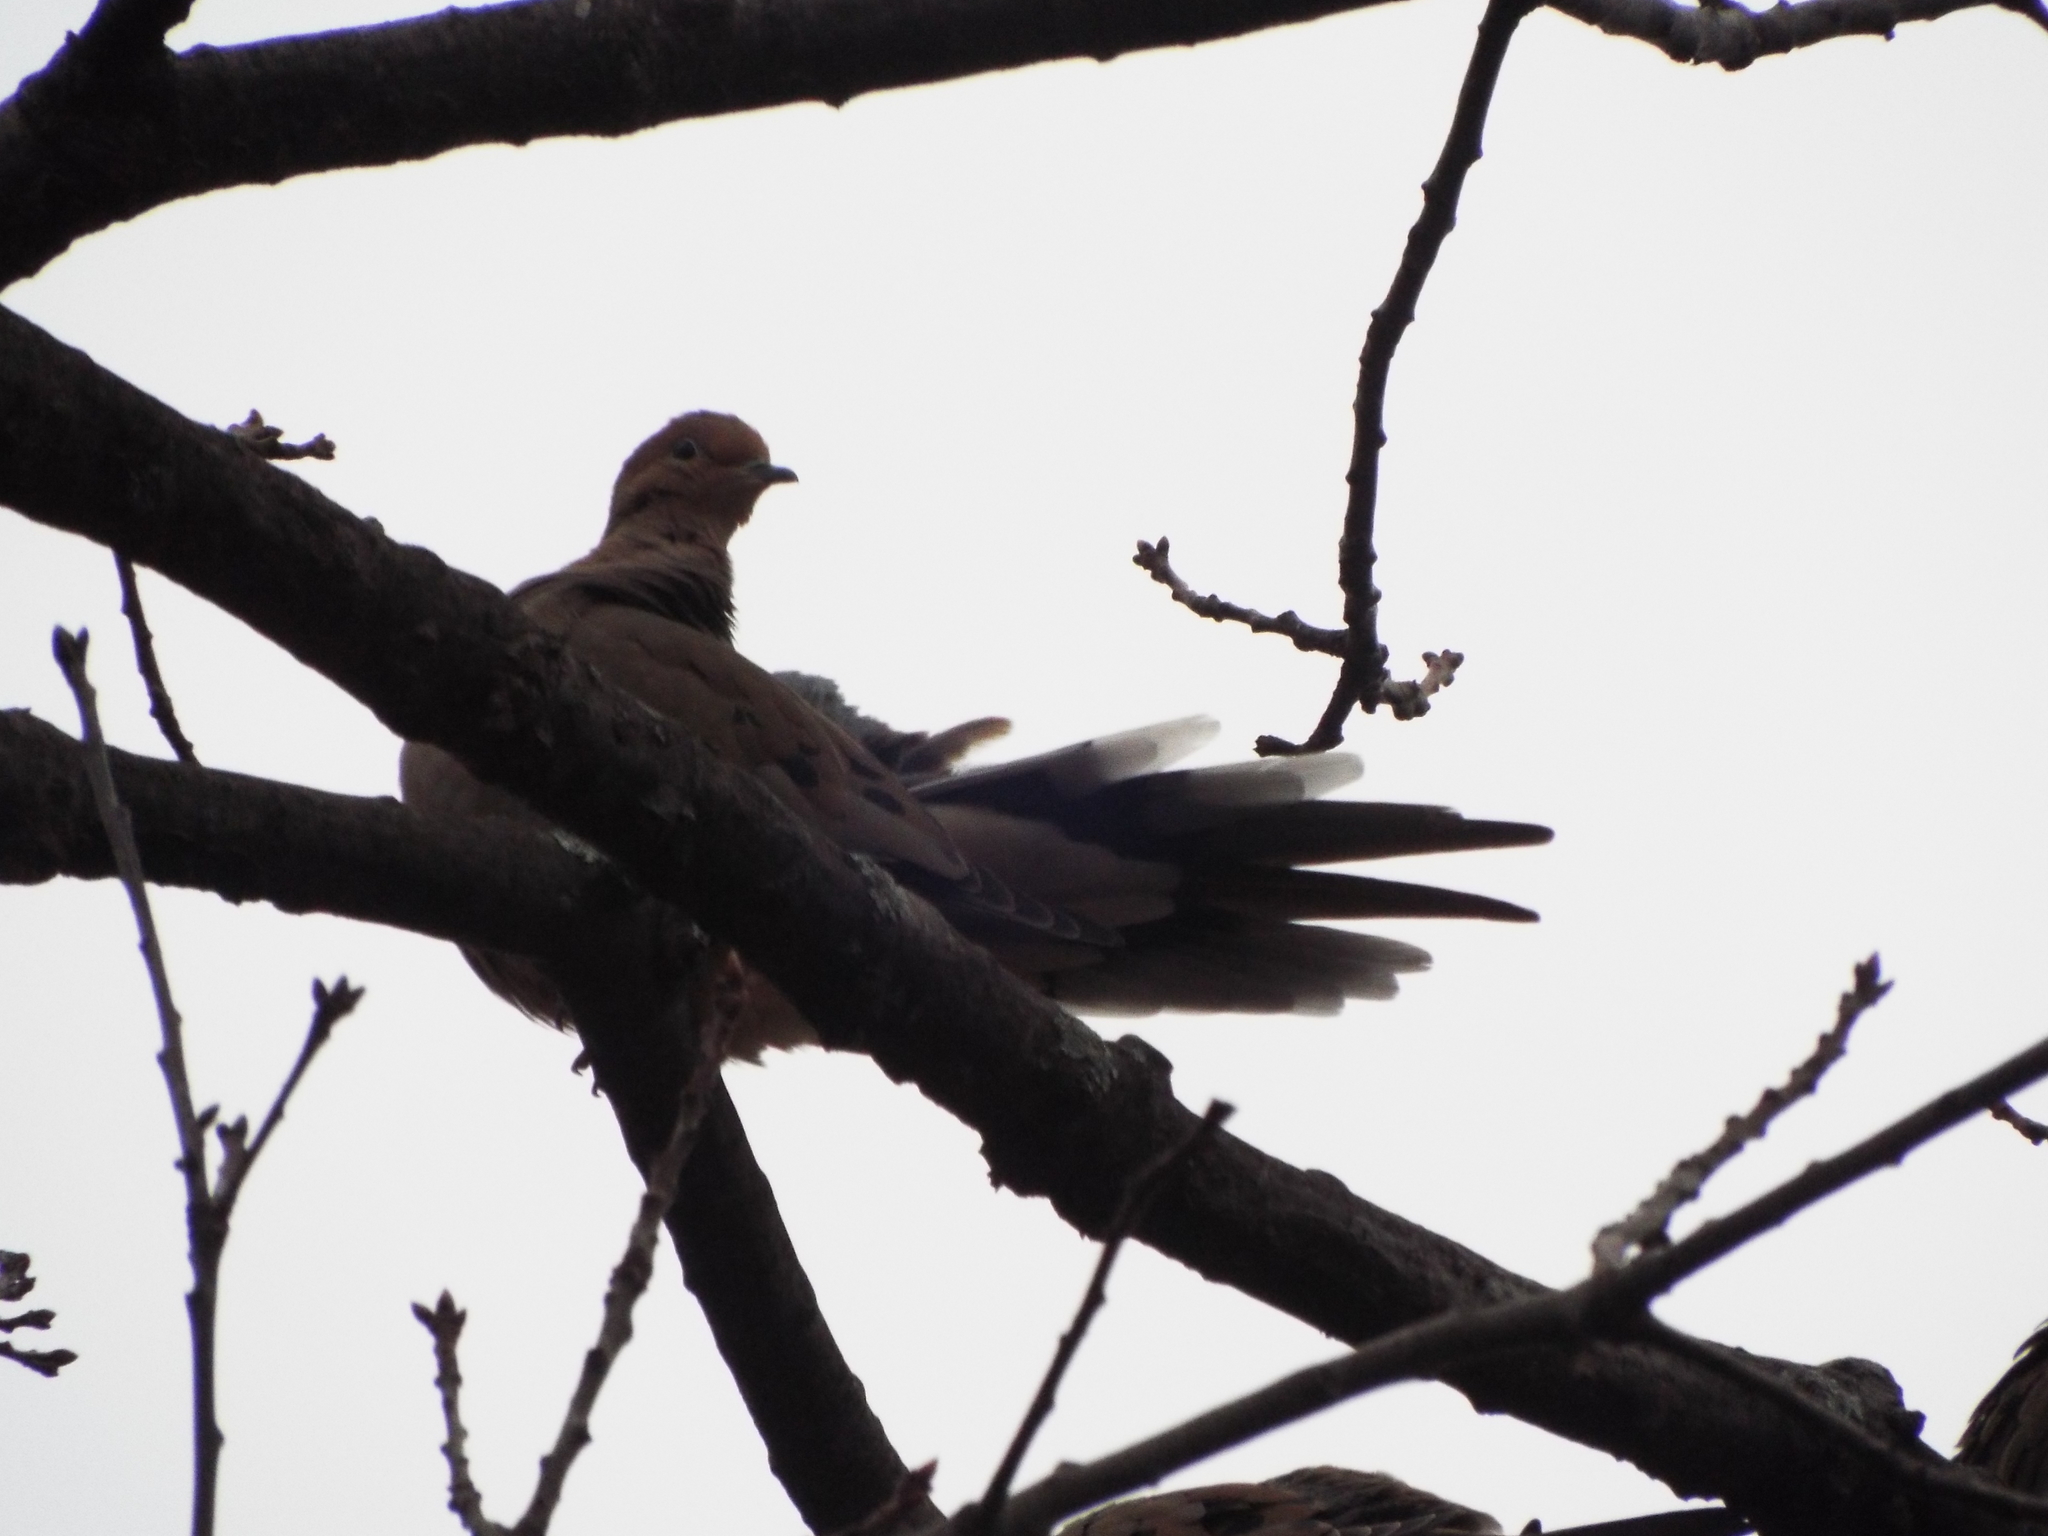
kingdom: Animalia
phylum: Chordata
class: Aves
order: Columbiformes
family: Columbidae
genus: Zenaida
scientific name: Zenaida macroura
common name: Mourning dove
